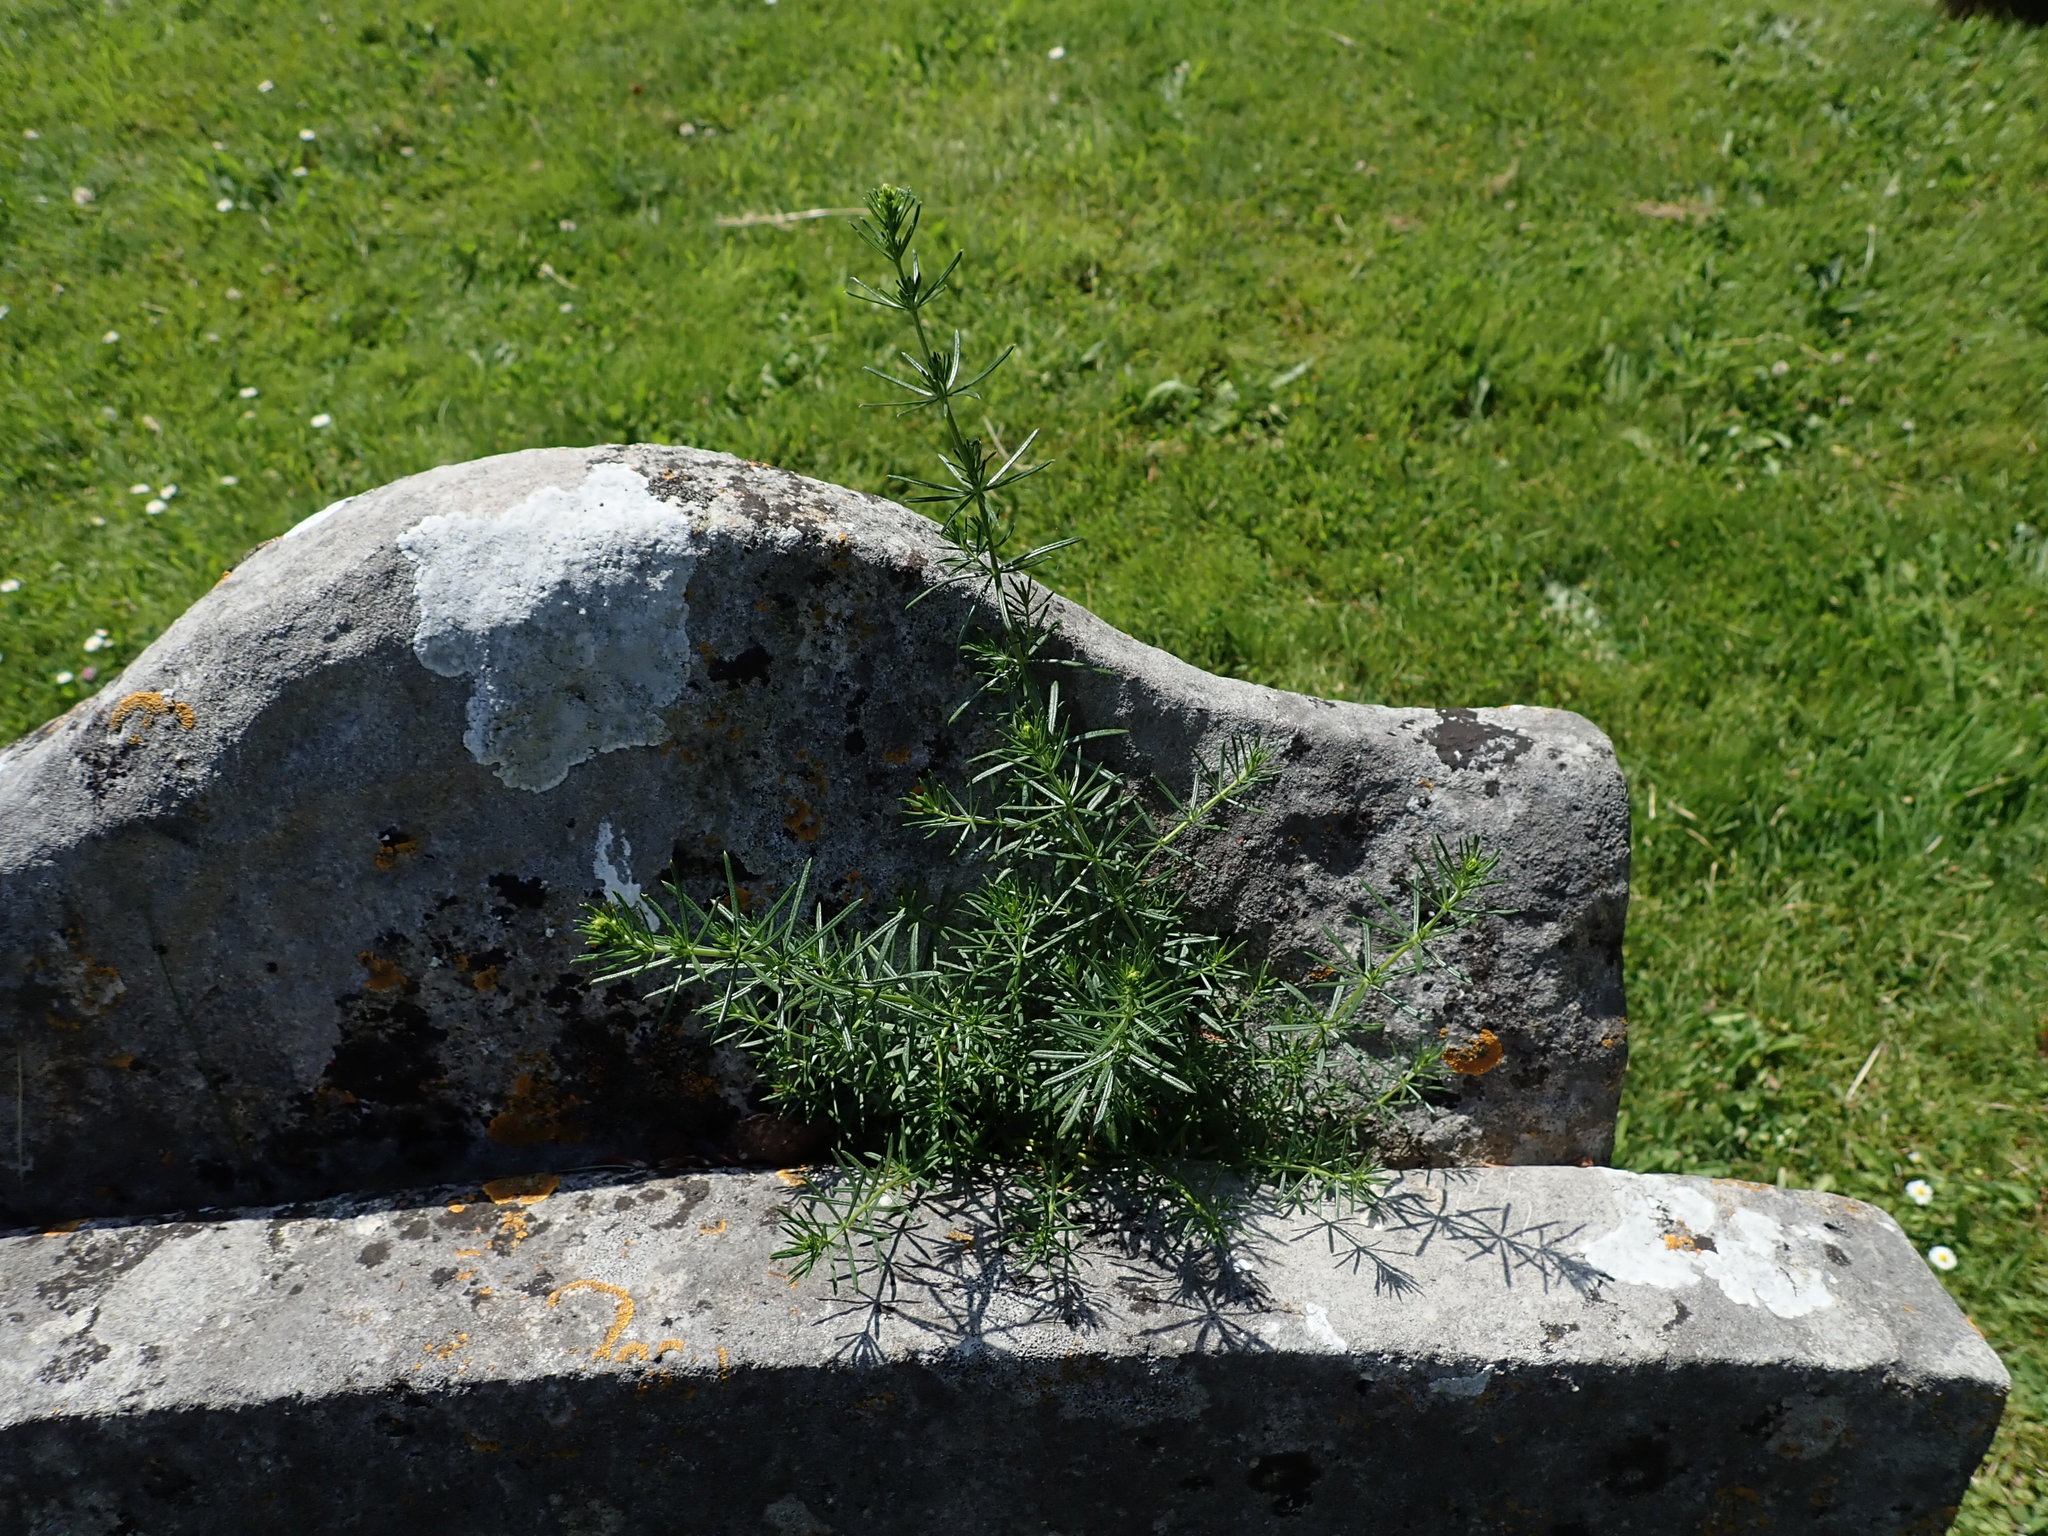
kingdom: Plantae
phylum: Tracheophyta
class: Magnoliopsida
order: Gentianales
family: Rubiaceae
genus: Galium
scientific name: Galium verum
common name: Lady's bedstraw
